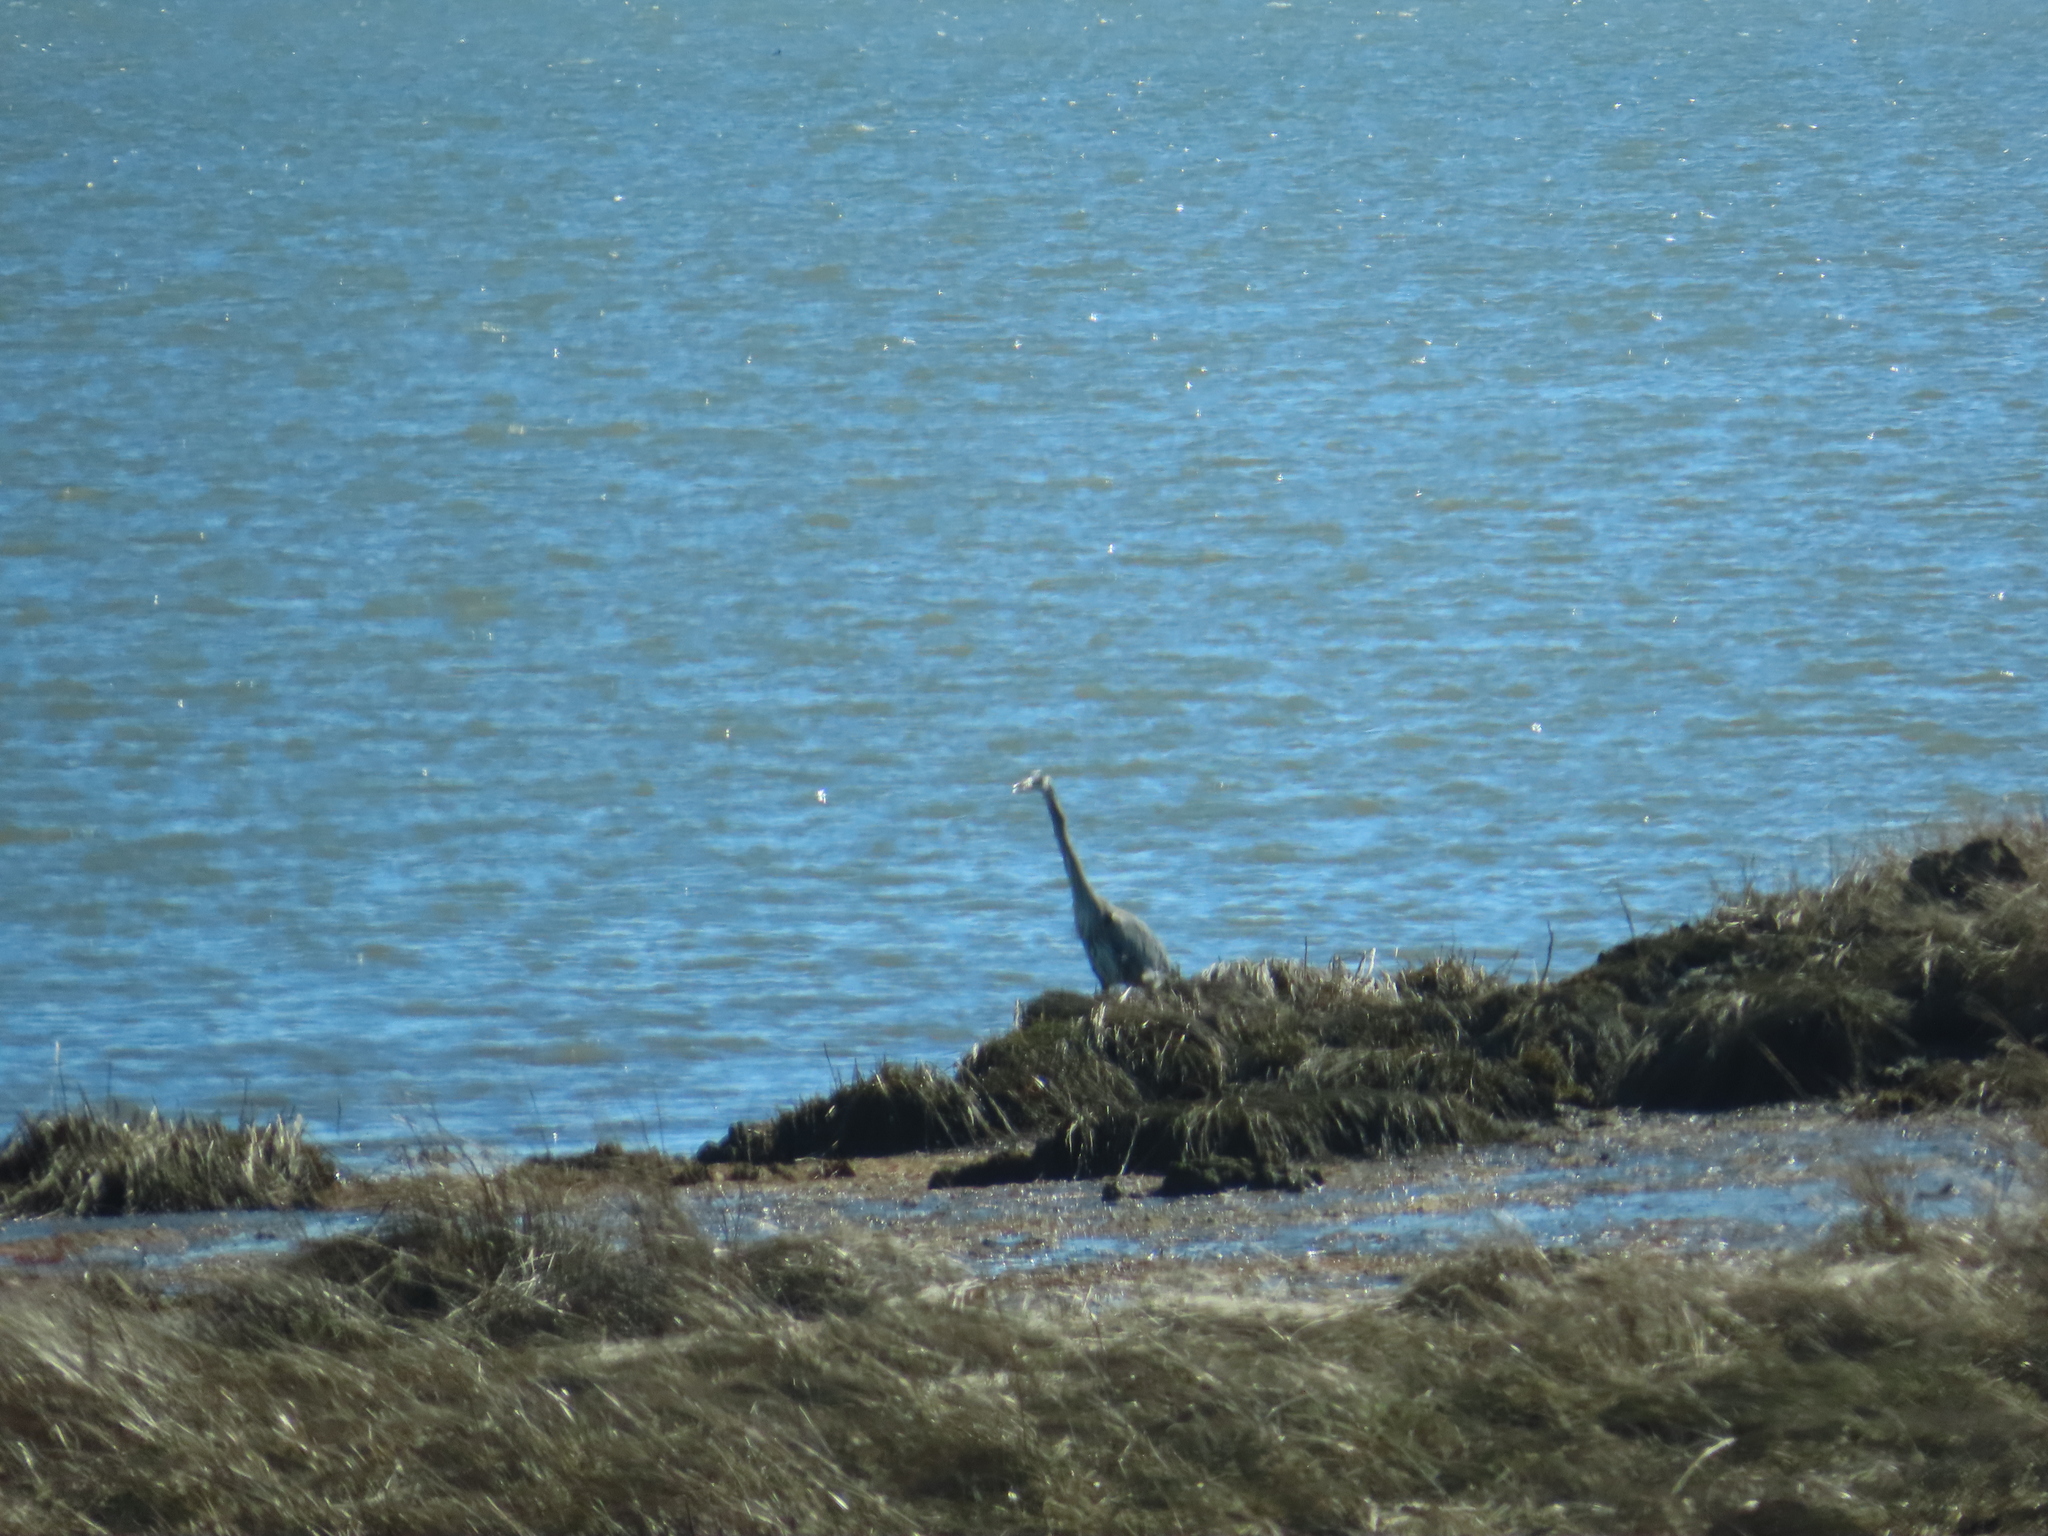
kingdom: Animalia
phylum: Chordata
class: Aves
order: Pelecaniformes
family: Ardeidae
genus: Ardea
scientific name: Ardea herodias
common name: Great blue heron
